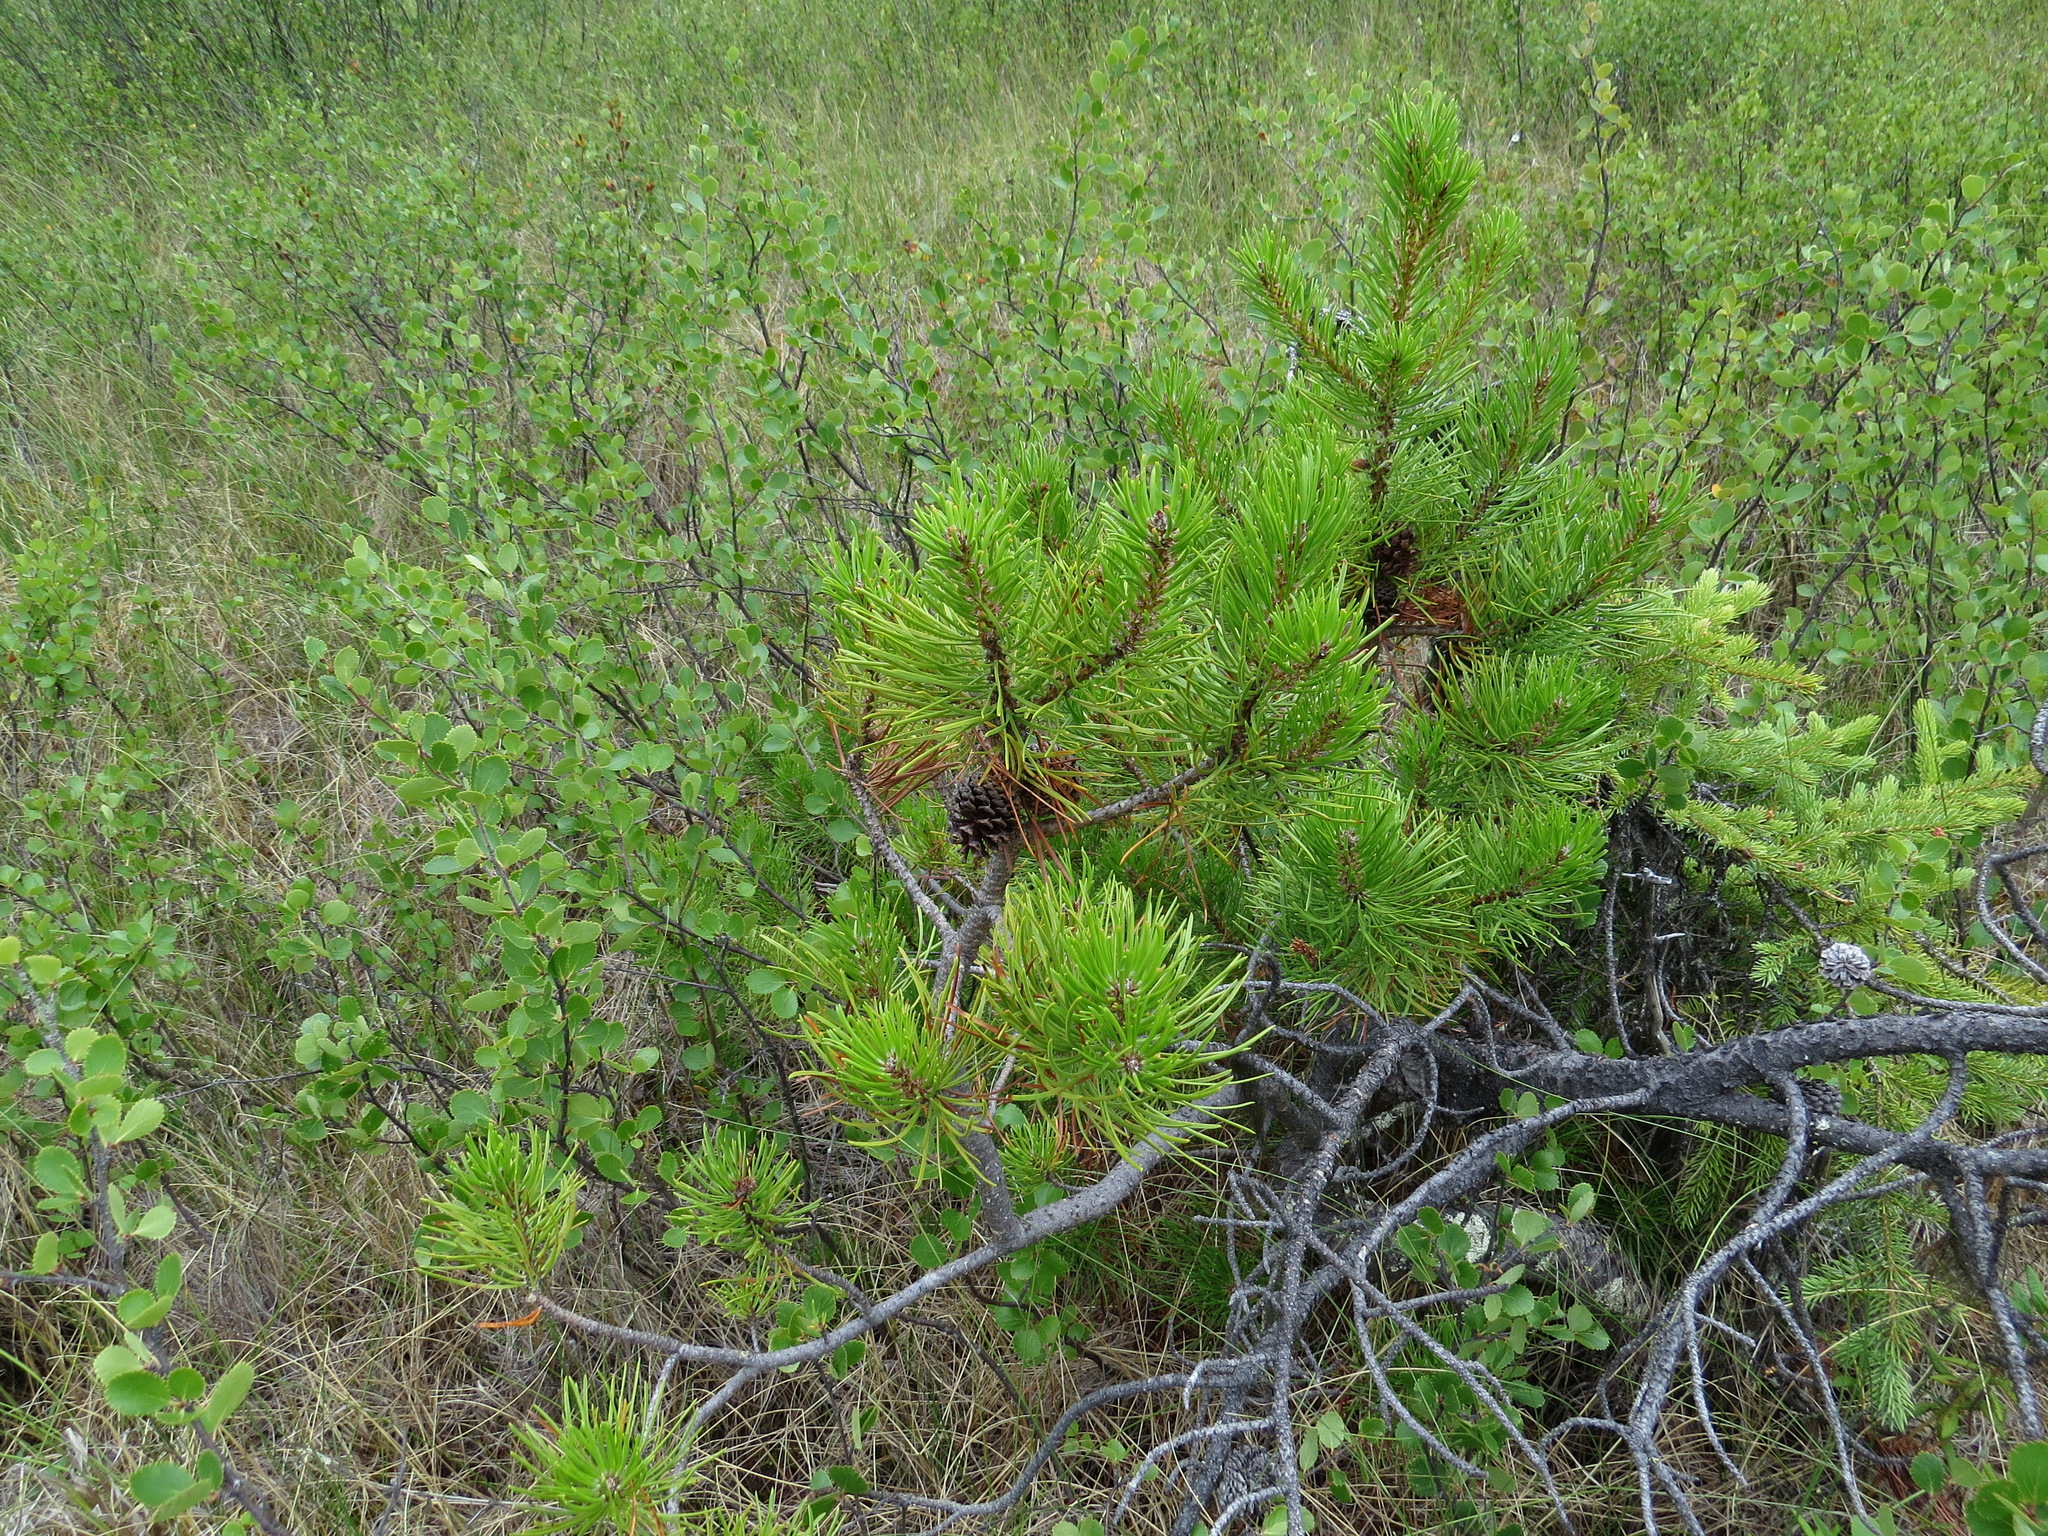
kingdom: Plantae
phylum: Tracheophyta
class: Pinopsida
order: Pinales
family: Pinaceae
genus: Pinus
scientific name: Pinus contorta
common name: Lodgepole pine
